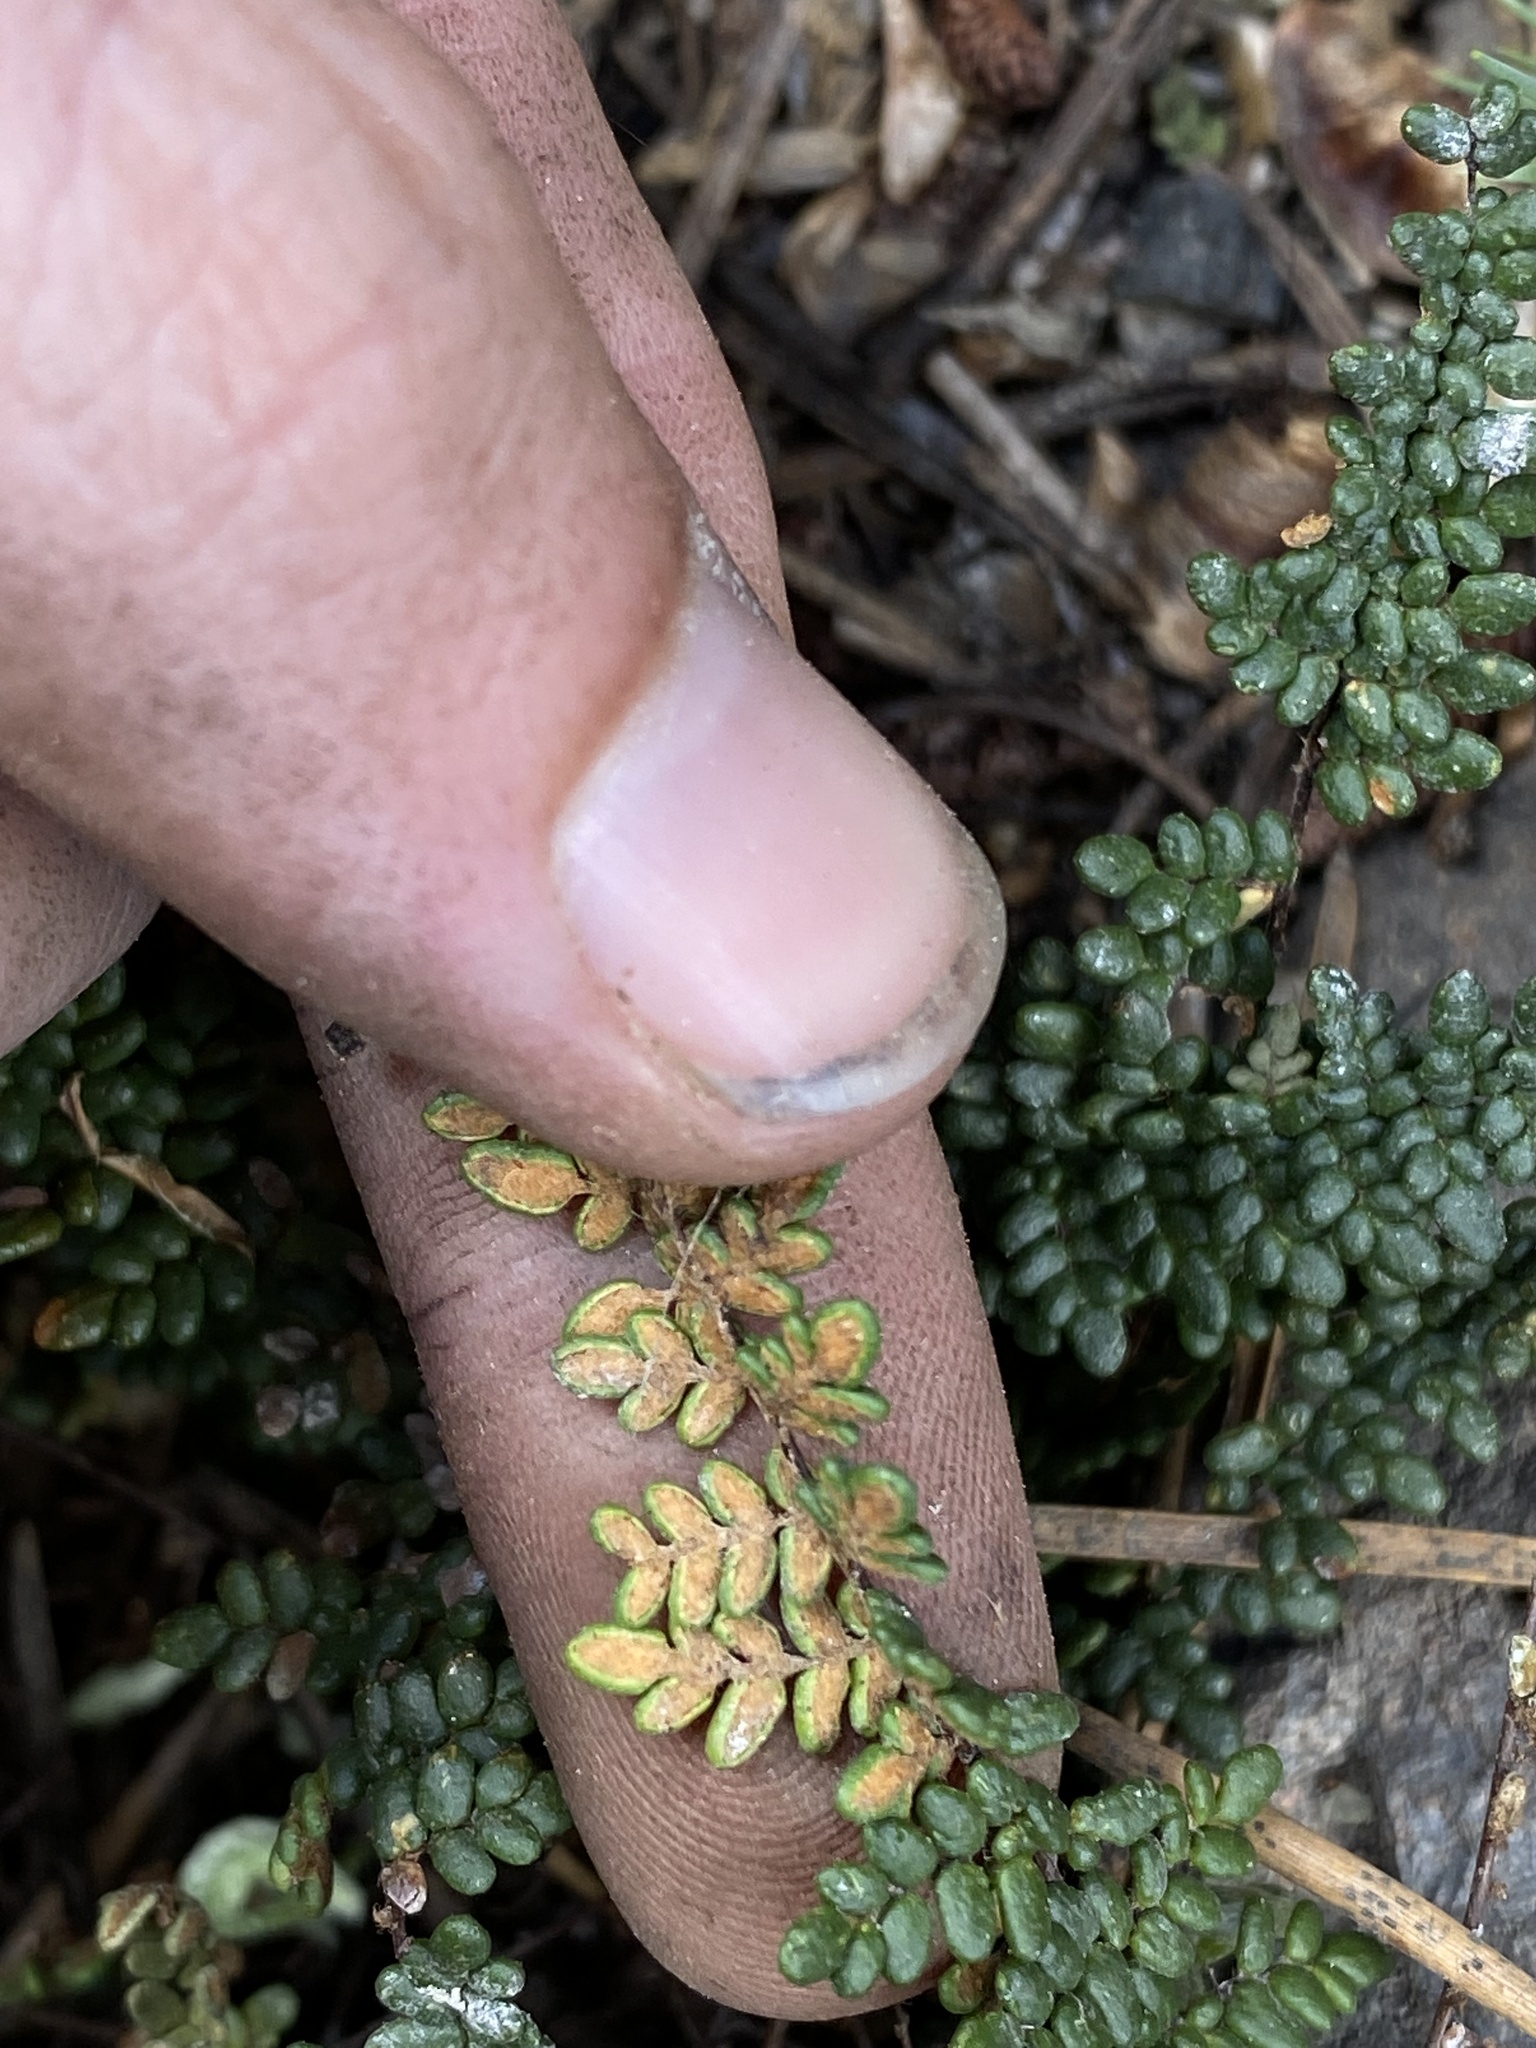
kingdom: Plantae
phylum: Tracheophyta
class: Polypodiopsida
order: Polypodiales
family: Pteridaceae
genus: Myriopteris
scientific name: Myriopteris gracillima
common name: Lace fern
